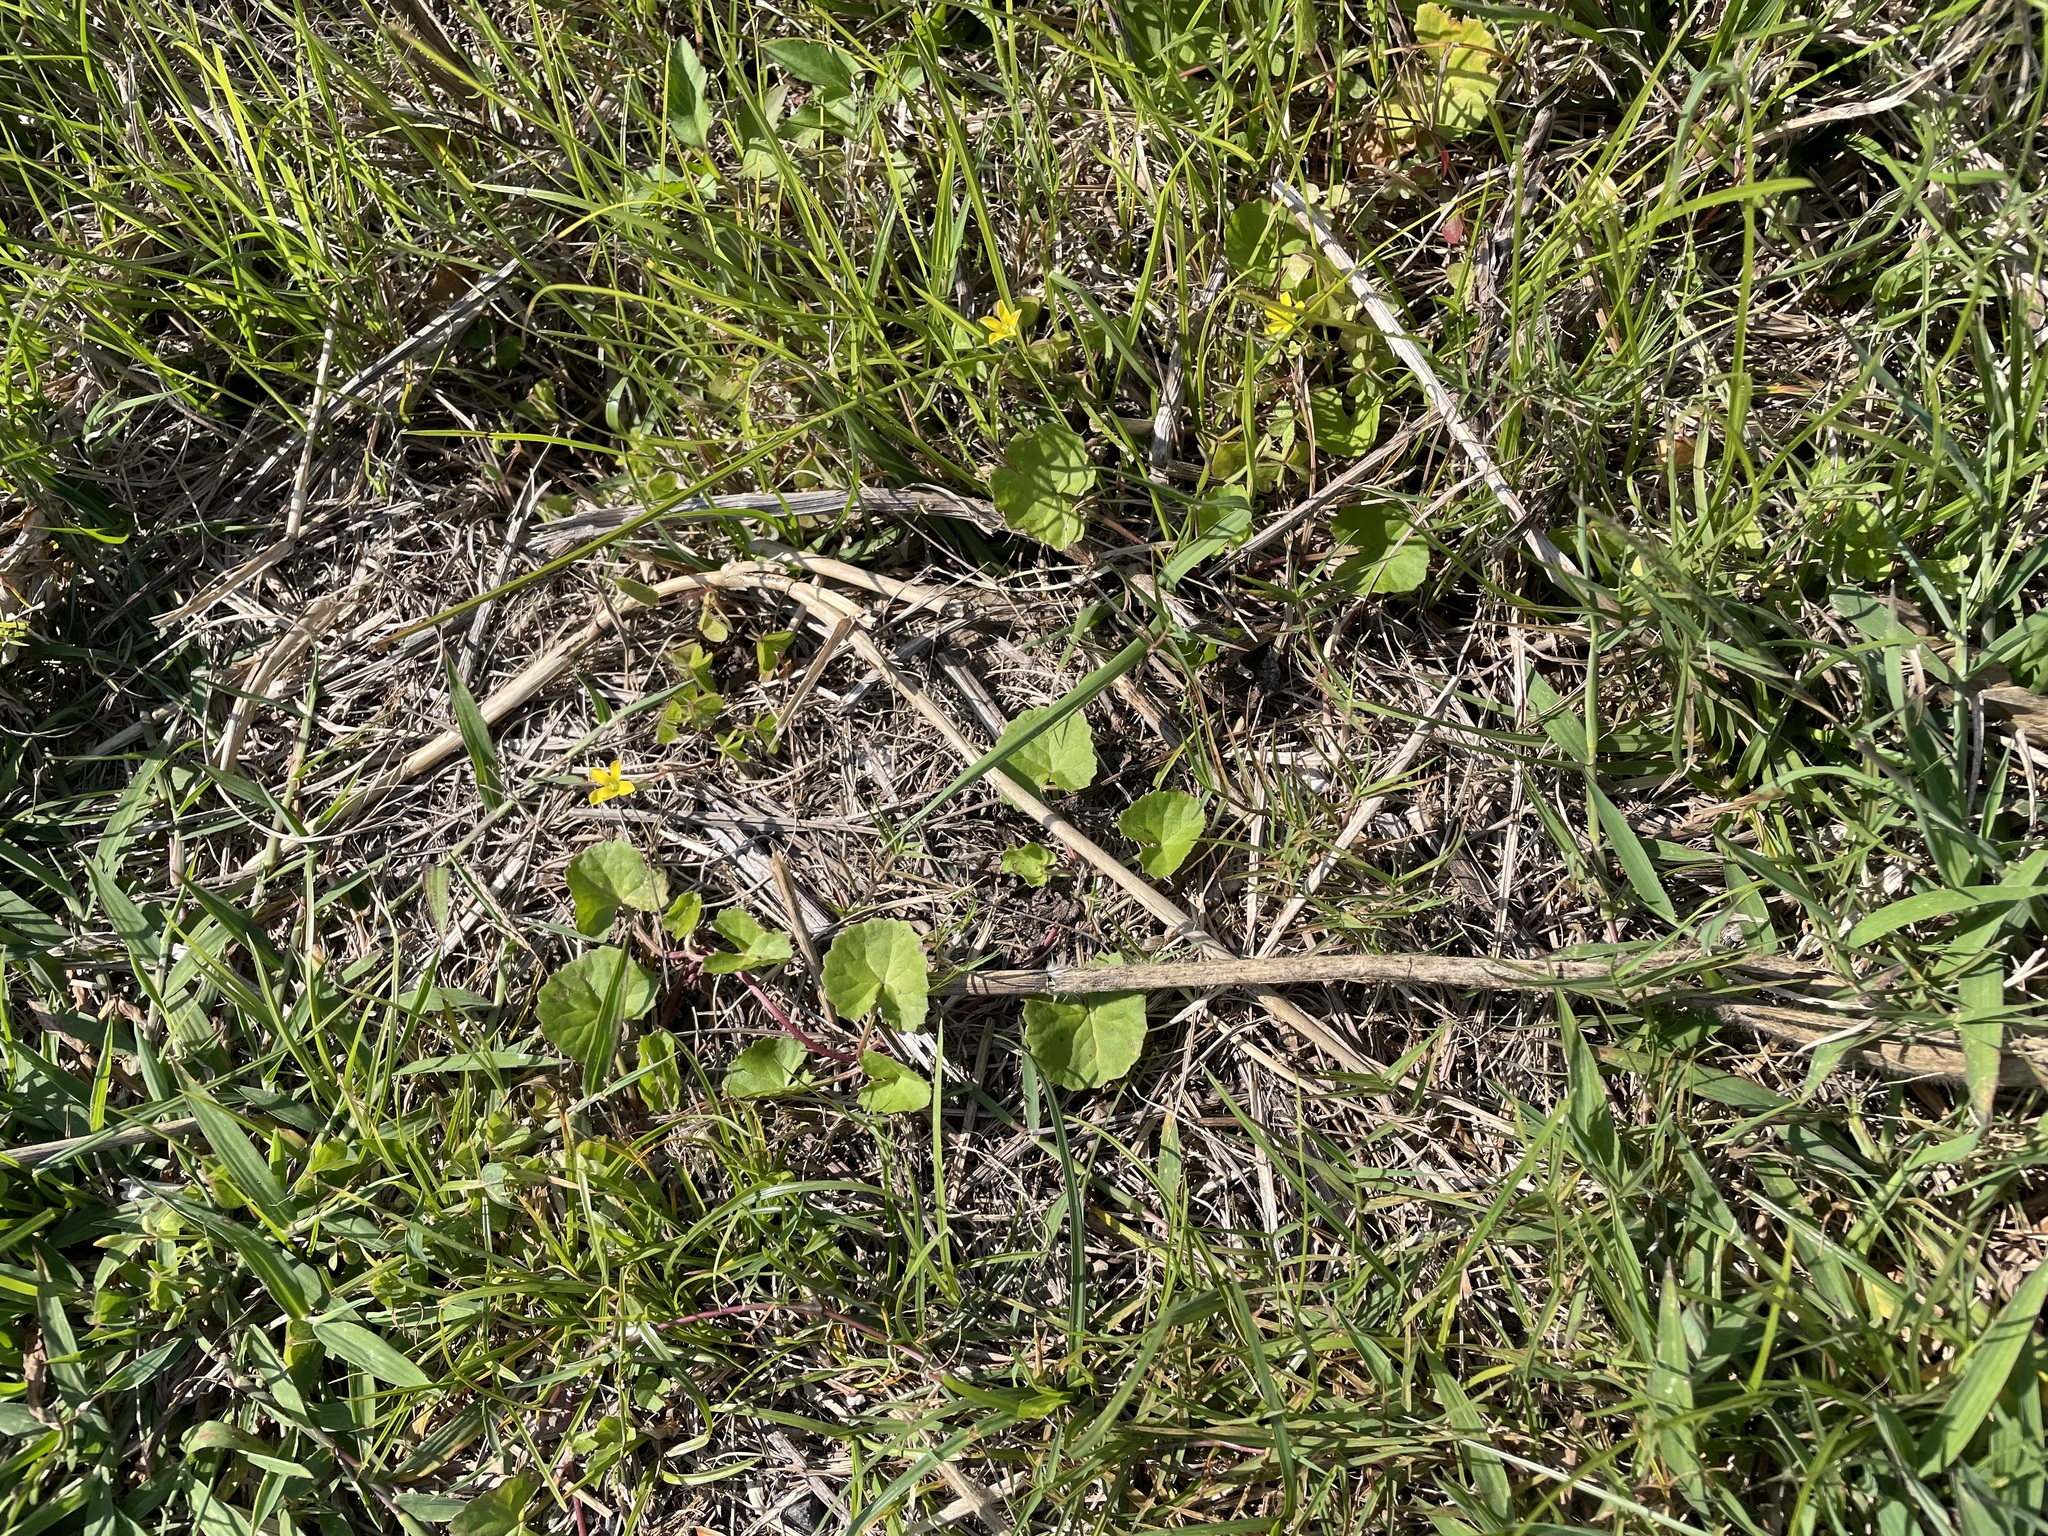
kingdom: Plantae
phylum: Tracheophyta
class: Magnoliopsida
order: Apiales
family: Apiaceae
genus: Centella
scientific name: Centella asiatica
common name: Spadeleaf
